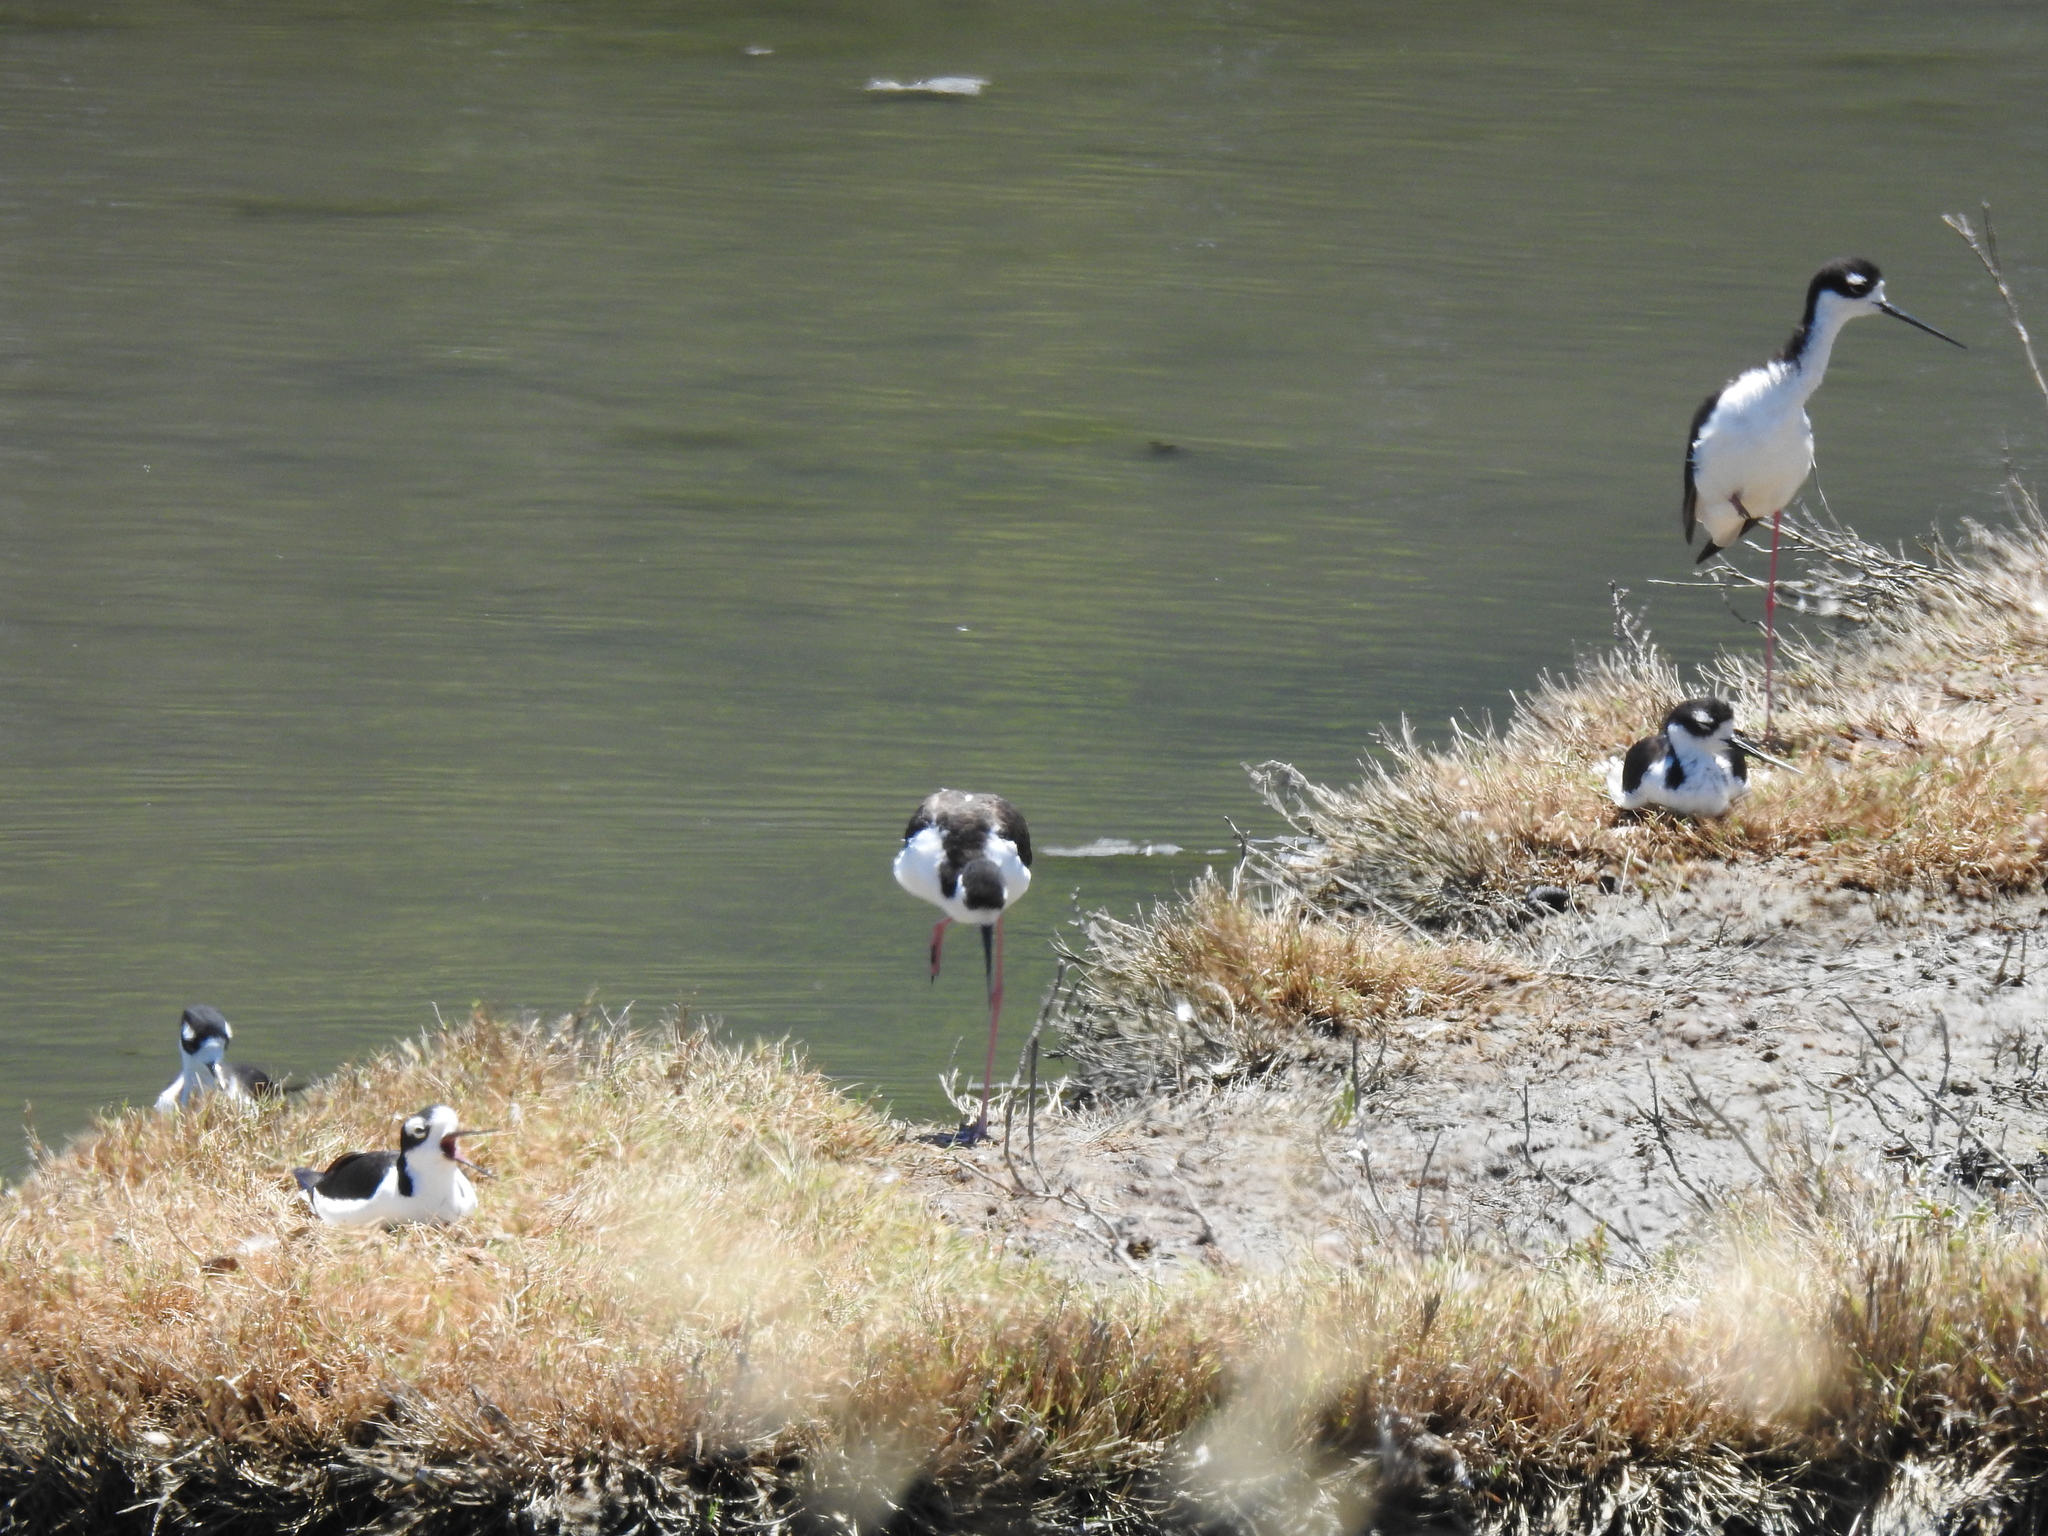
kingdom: Animalia
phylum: Chordata
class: Aves
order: Charadriiformes
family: Recurvirostridae
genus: Himantopus
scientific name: Himantopus mexicanus
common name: Black-necked stilt
